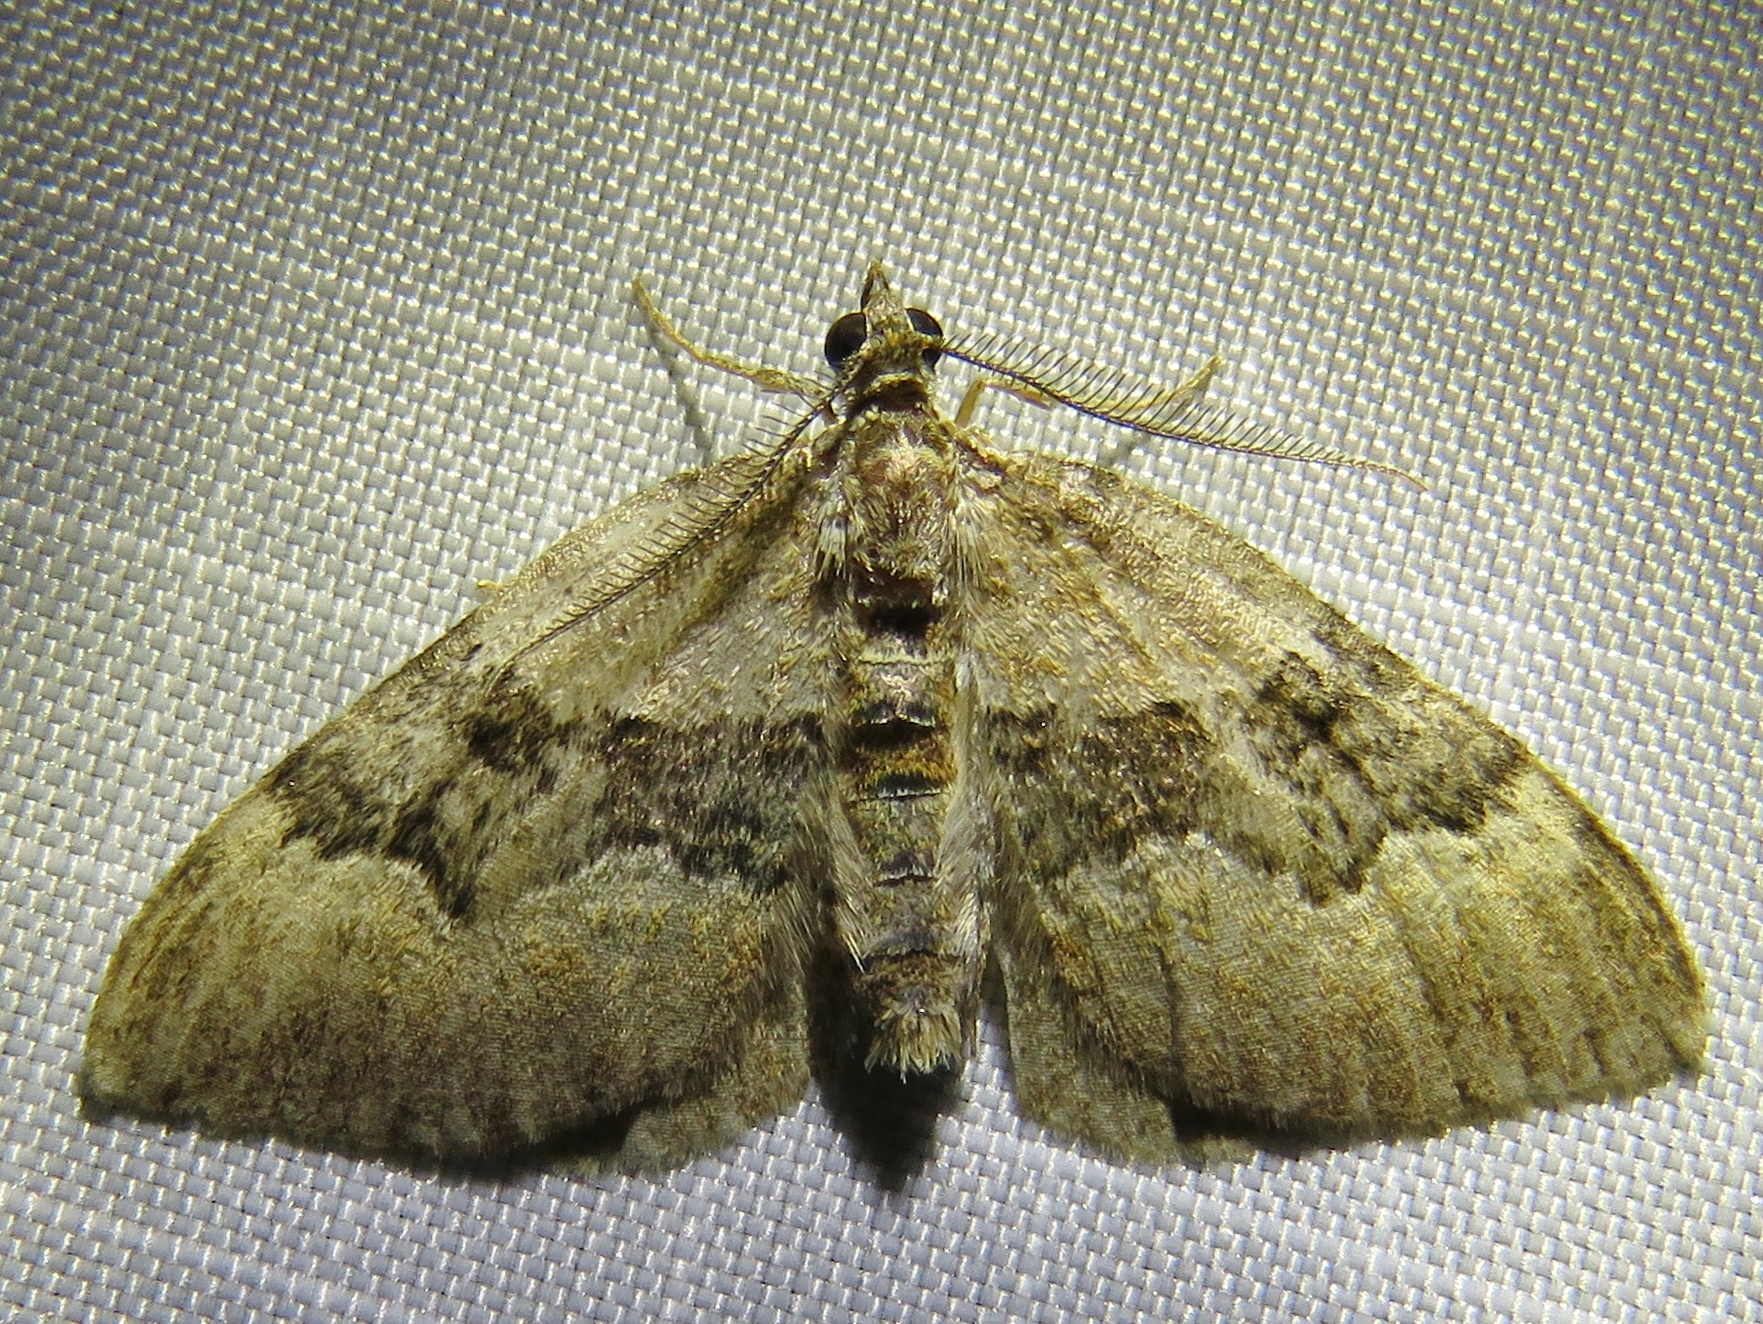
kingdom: Animalia
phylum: Arthropoda
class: Insecta
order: Lepidoptera
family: Geometridae
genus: Xanthorhoe
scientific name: Xanthorhoe quadrifasiata
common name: Large twin-spot carpet
